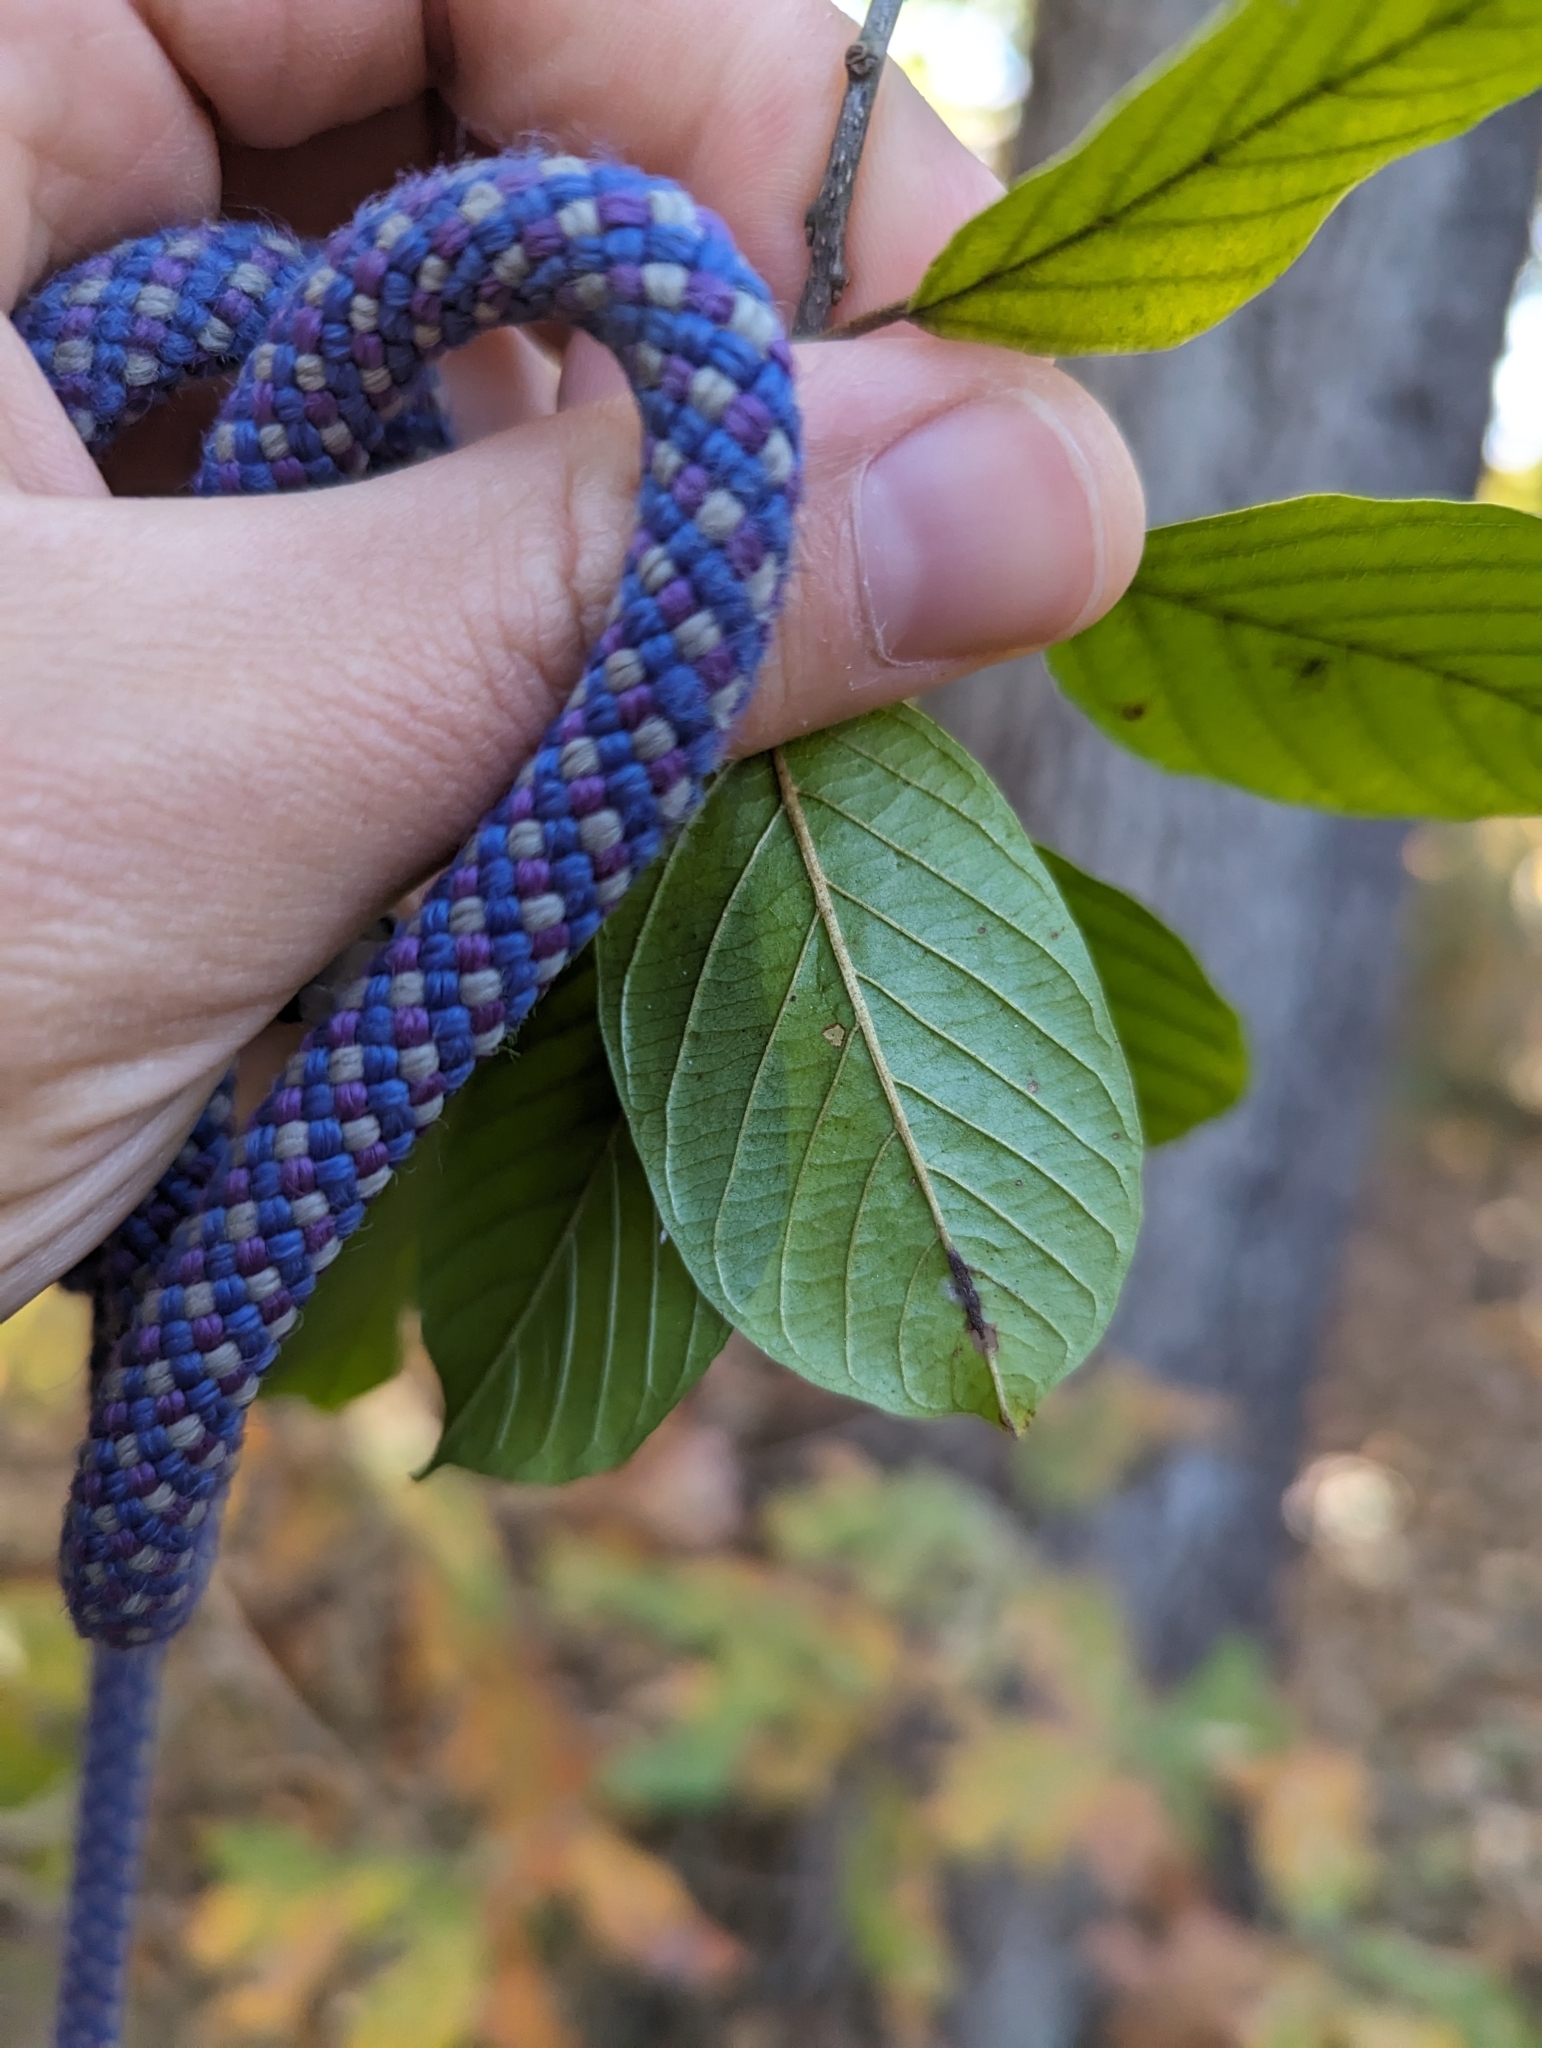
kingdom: Plantae
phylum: Tracheophyta
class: Magnoliopsida
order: Rosales
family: Rhamnaceae
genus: Frangula
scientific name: Frangula alnus
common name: Alder buckthorn
